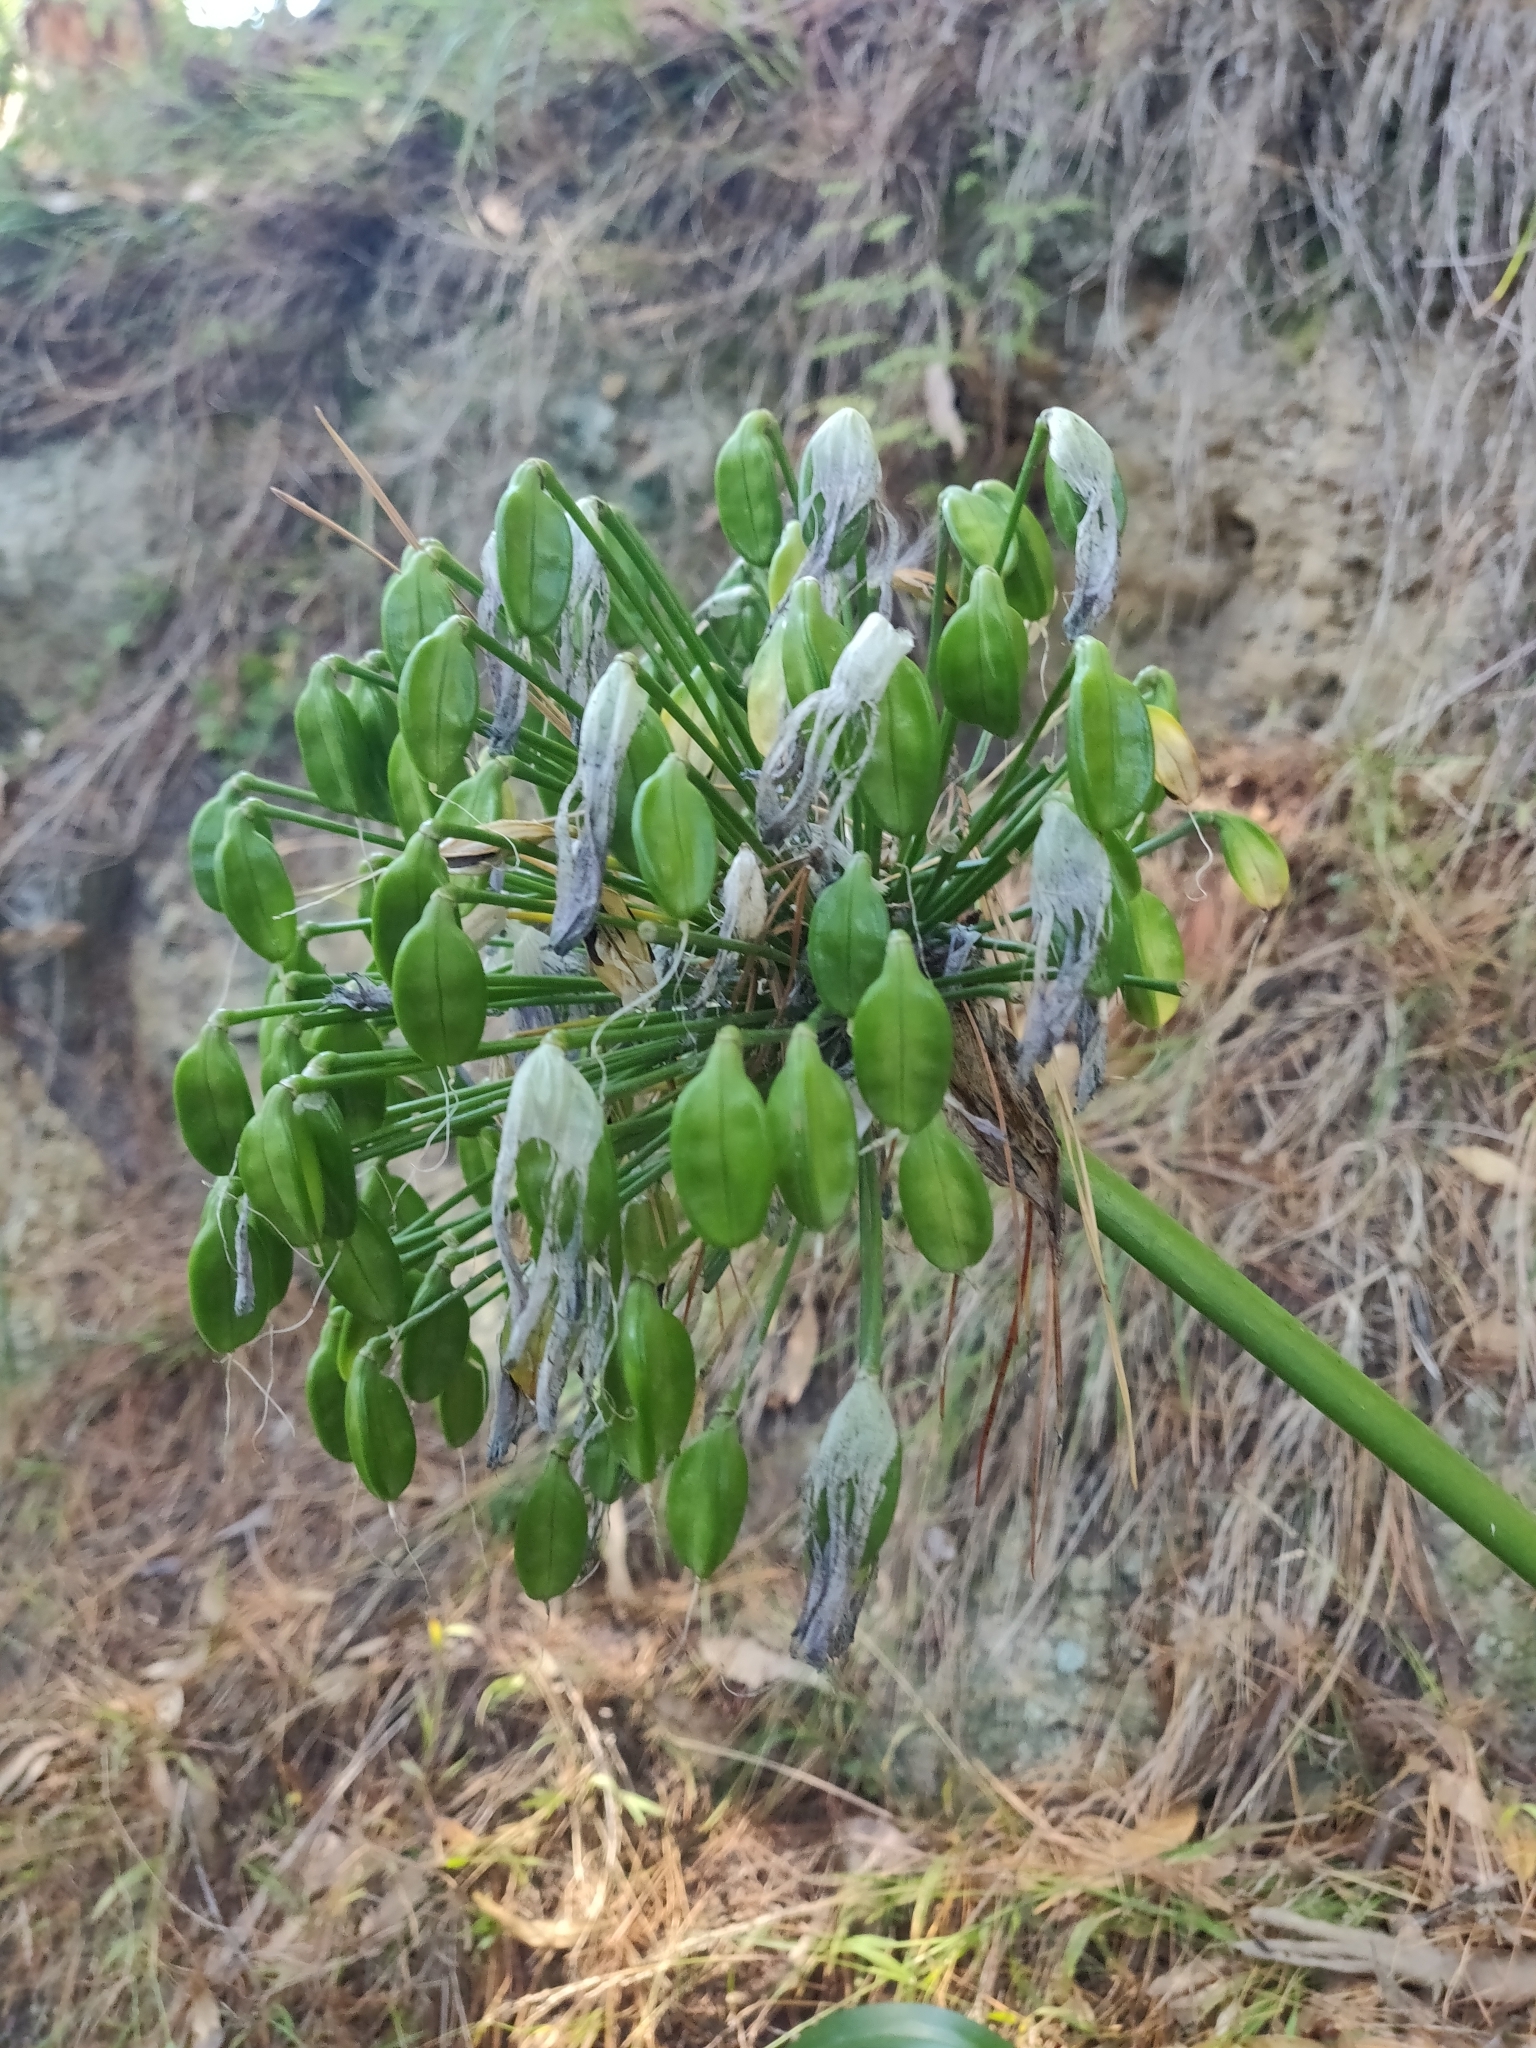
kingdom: Plantae
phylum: Tracheophyta
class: Liliopsida
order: Asparagales
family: Amaryllidaceae
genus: Agapanthus
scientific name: Agapanthus praecox
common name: African-lily
